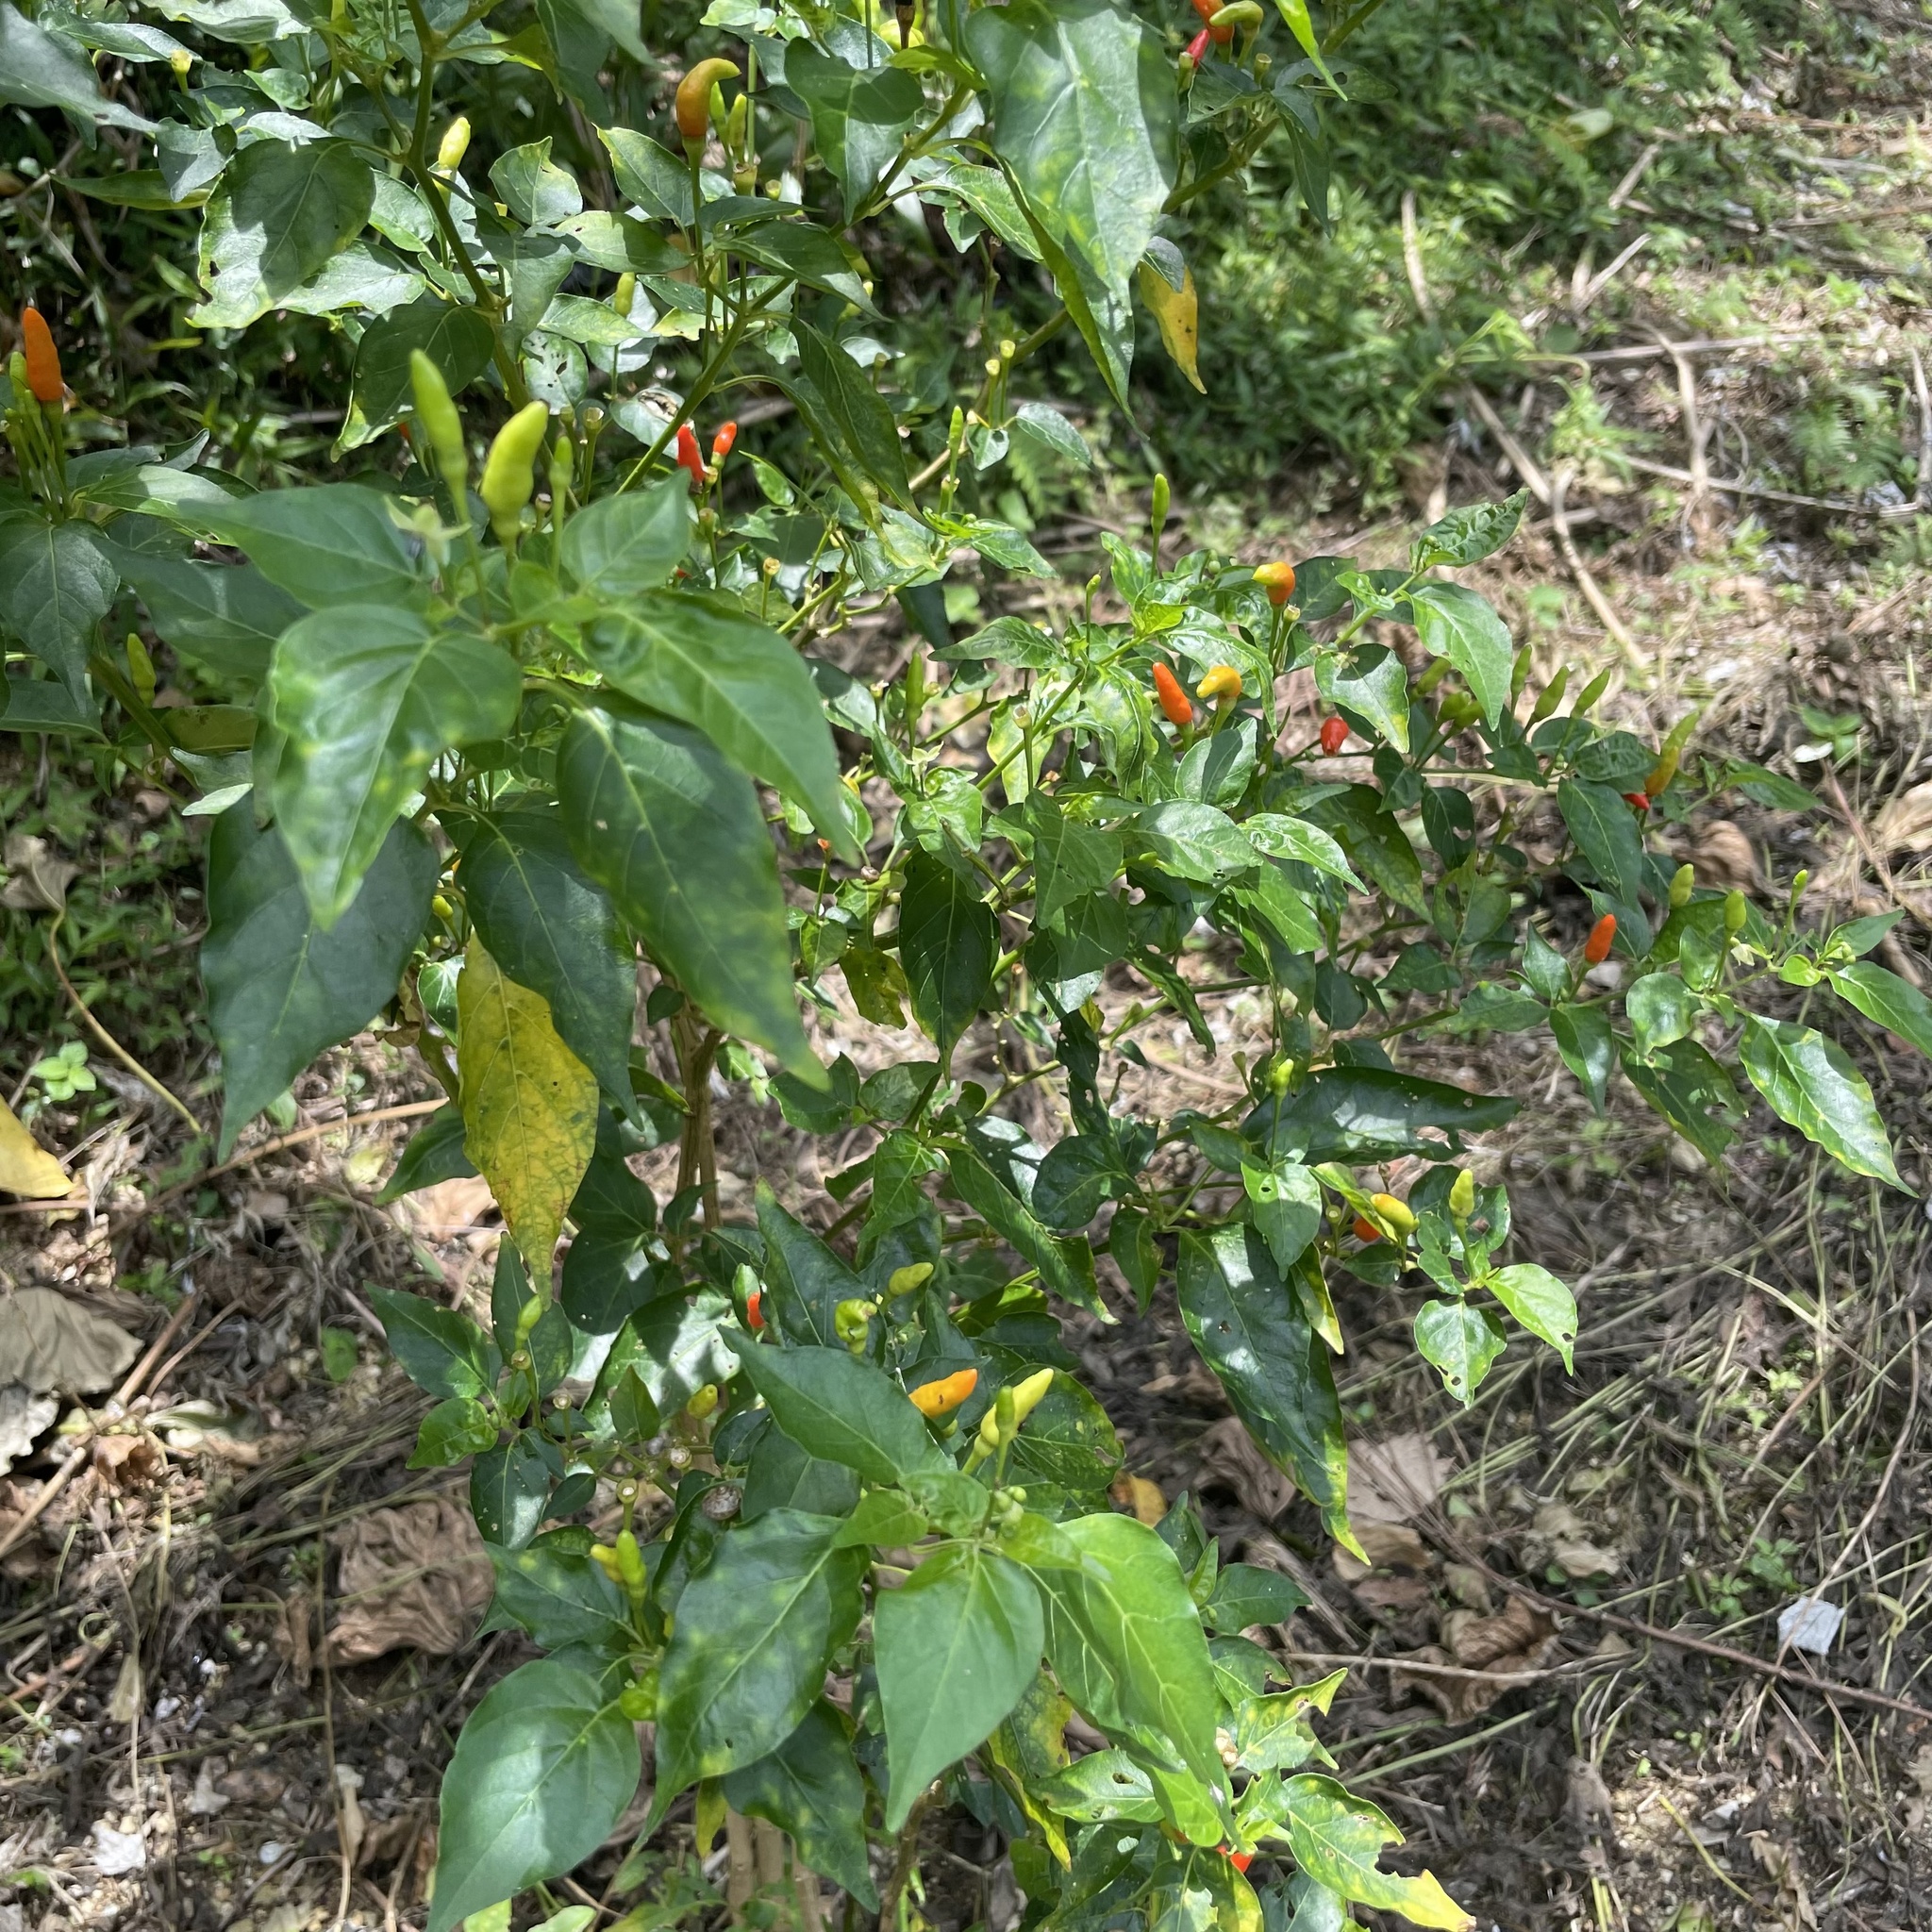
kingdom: Plantae
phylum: Tracheophyta
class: Magnoliopsida
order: Solanales
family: Solanaceae
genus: Capsicum
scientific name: Capsicum frutescens
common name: Bird pepper
